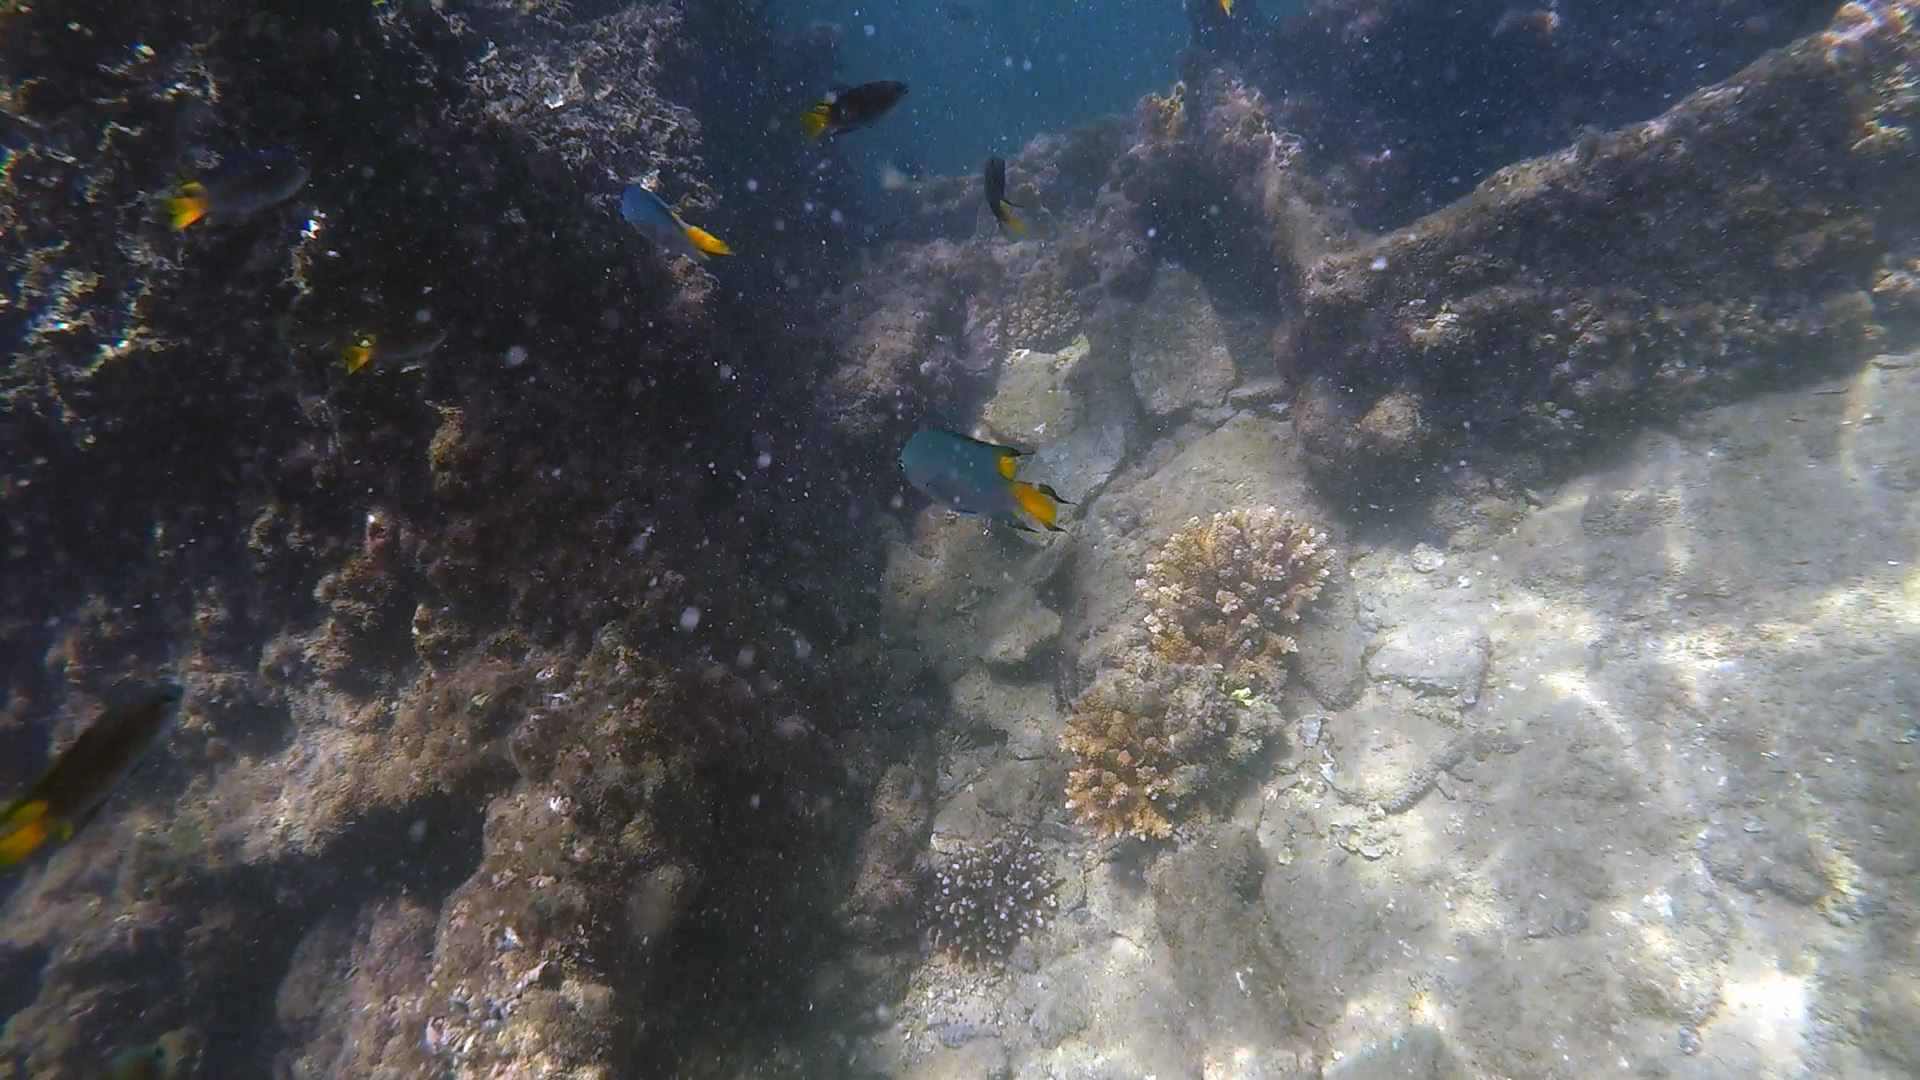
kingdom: Animalia
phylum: Chordata
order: Perciformes
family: Pomacentridae
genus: Neopomacentrus
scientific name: Neopomacentrus azysron
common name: Yellow-tail damsel
